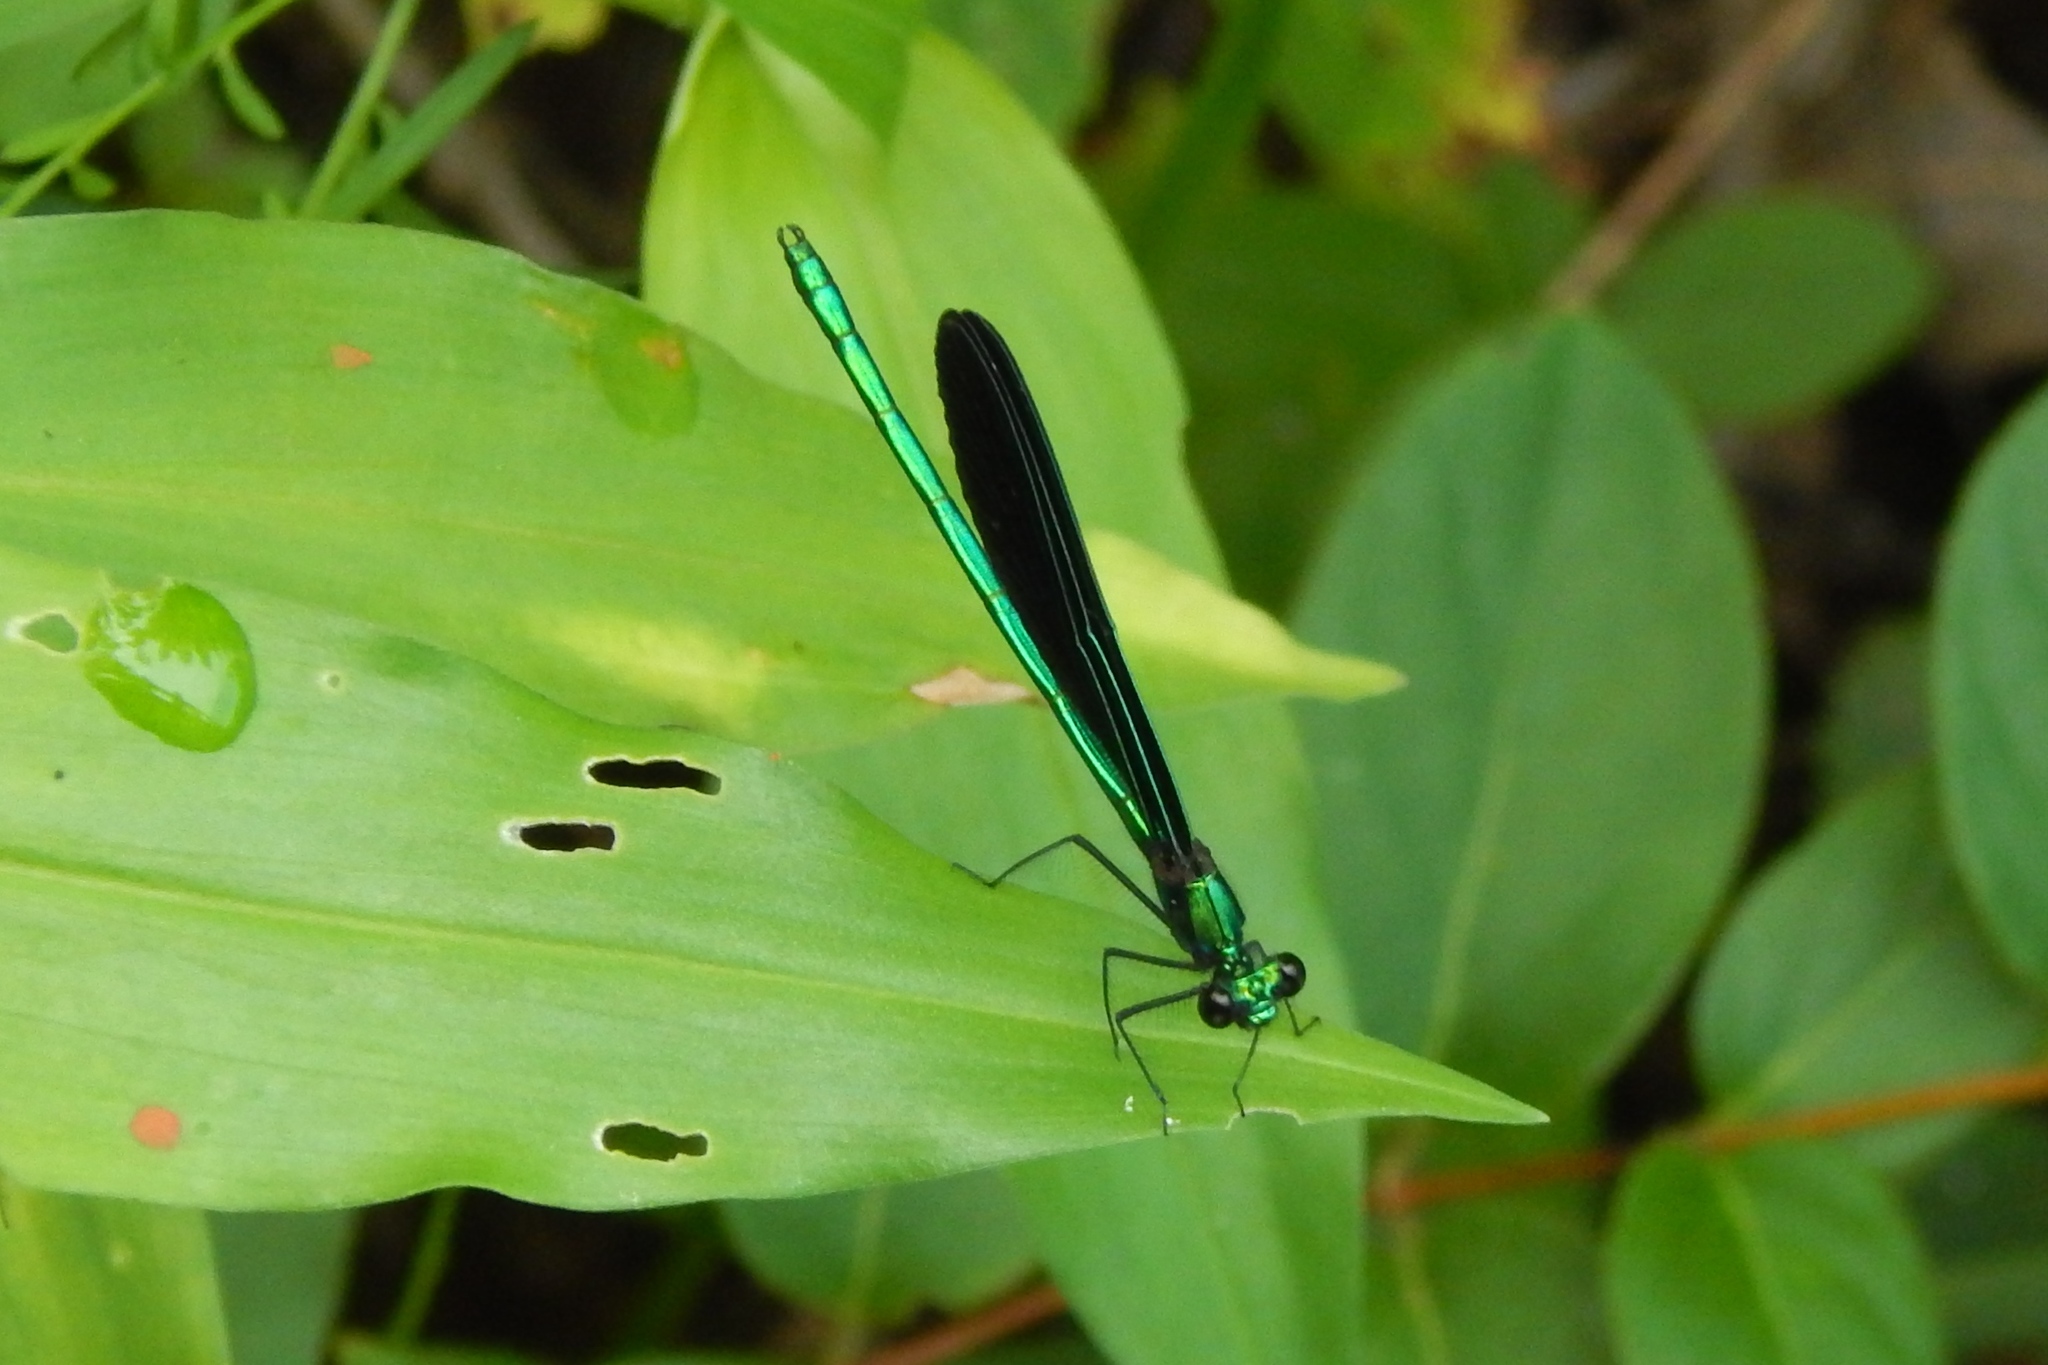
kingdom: Animalia
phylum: Arthropoda
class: Insecta
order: Odonata
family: Calopterygidae
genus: Calopteryx
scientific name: Calopteryx maculata
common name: Ebony jewelwing
